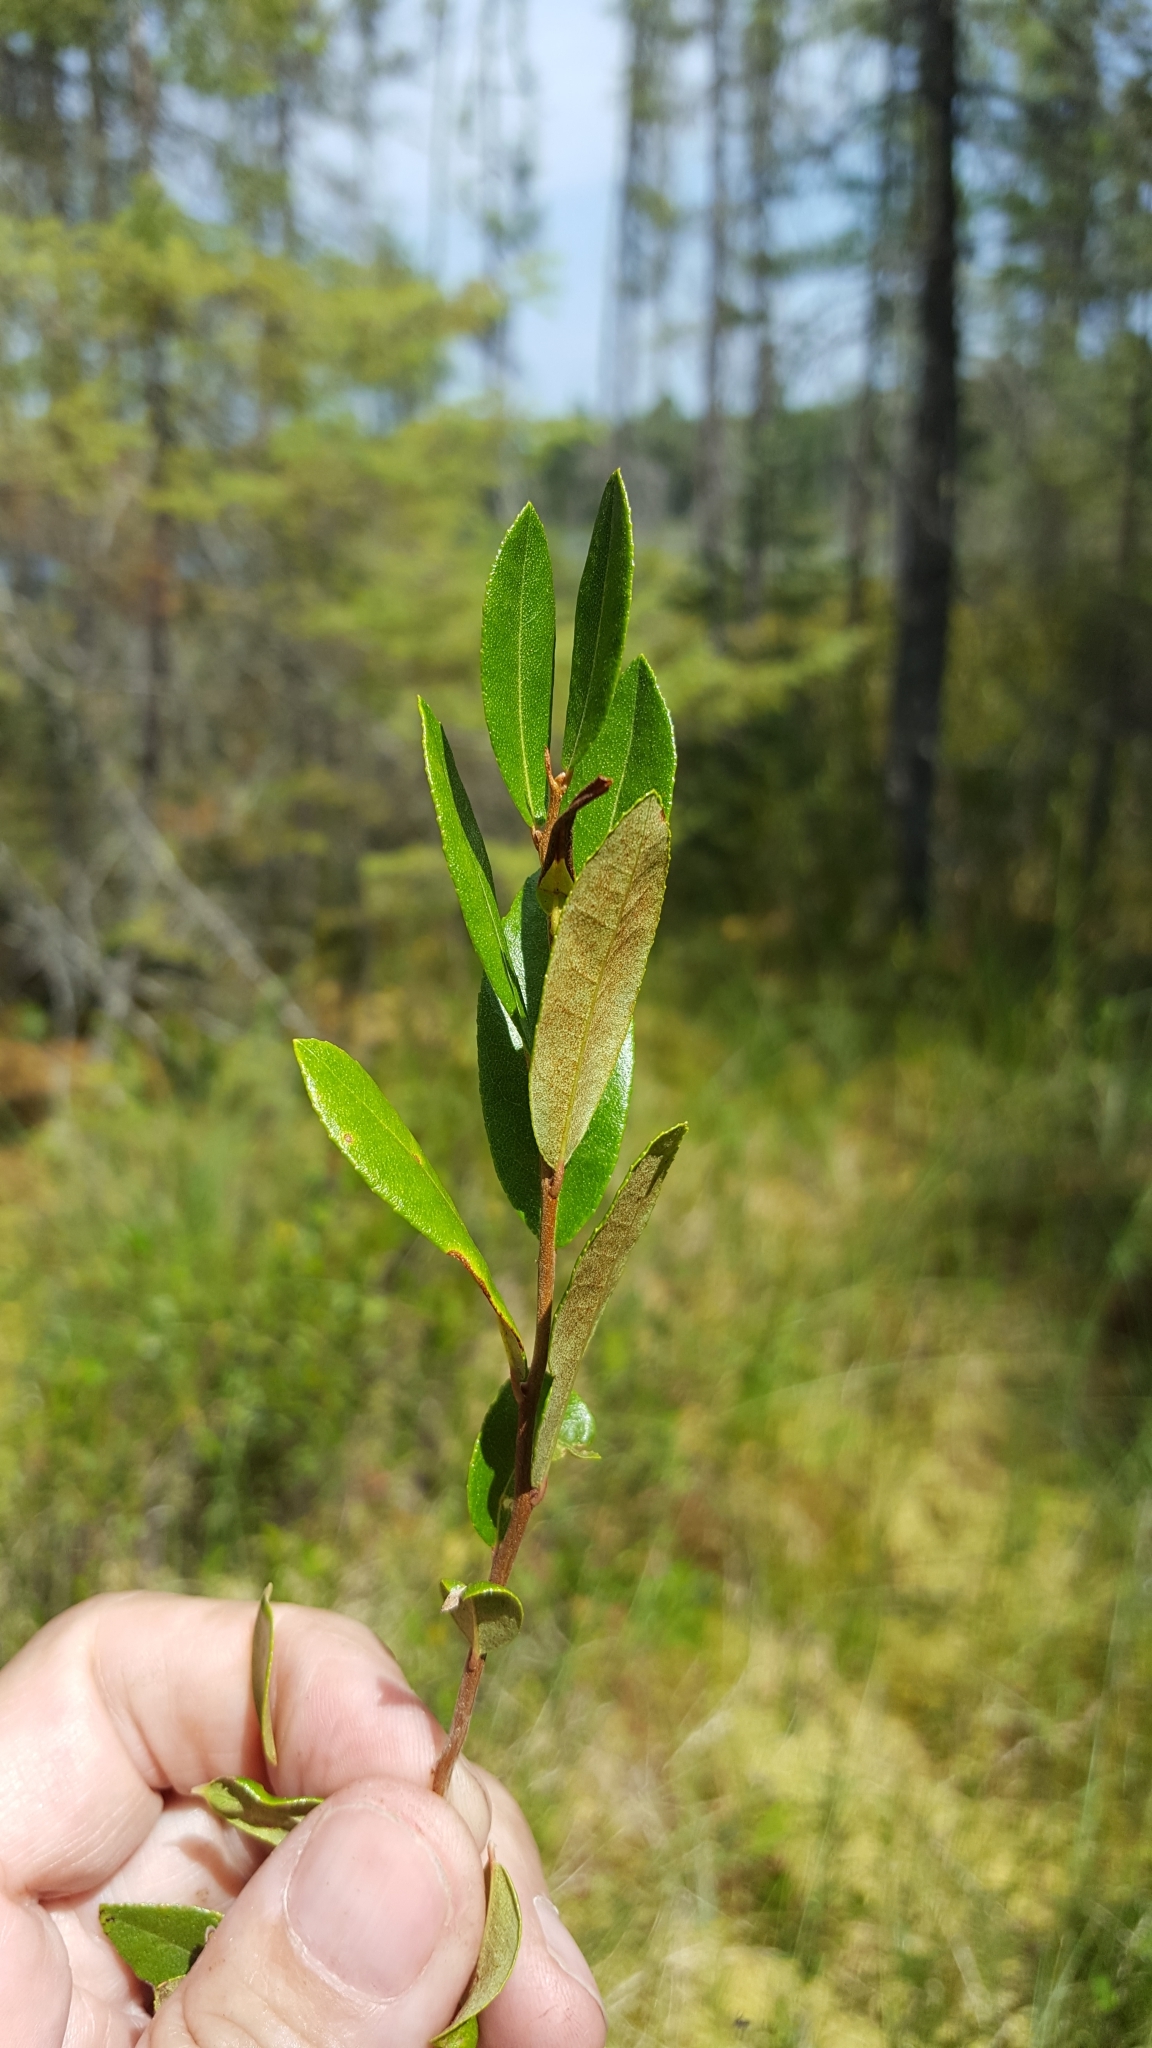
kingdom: Plantae
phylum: Tracheophyta
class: Magnoliopsida
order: Ericales
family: Ericaceae
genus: Chamaedaphne
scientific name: Chamaedaphne calyculata
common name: Leatherleaf
